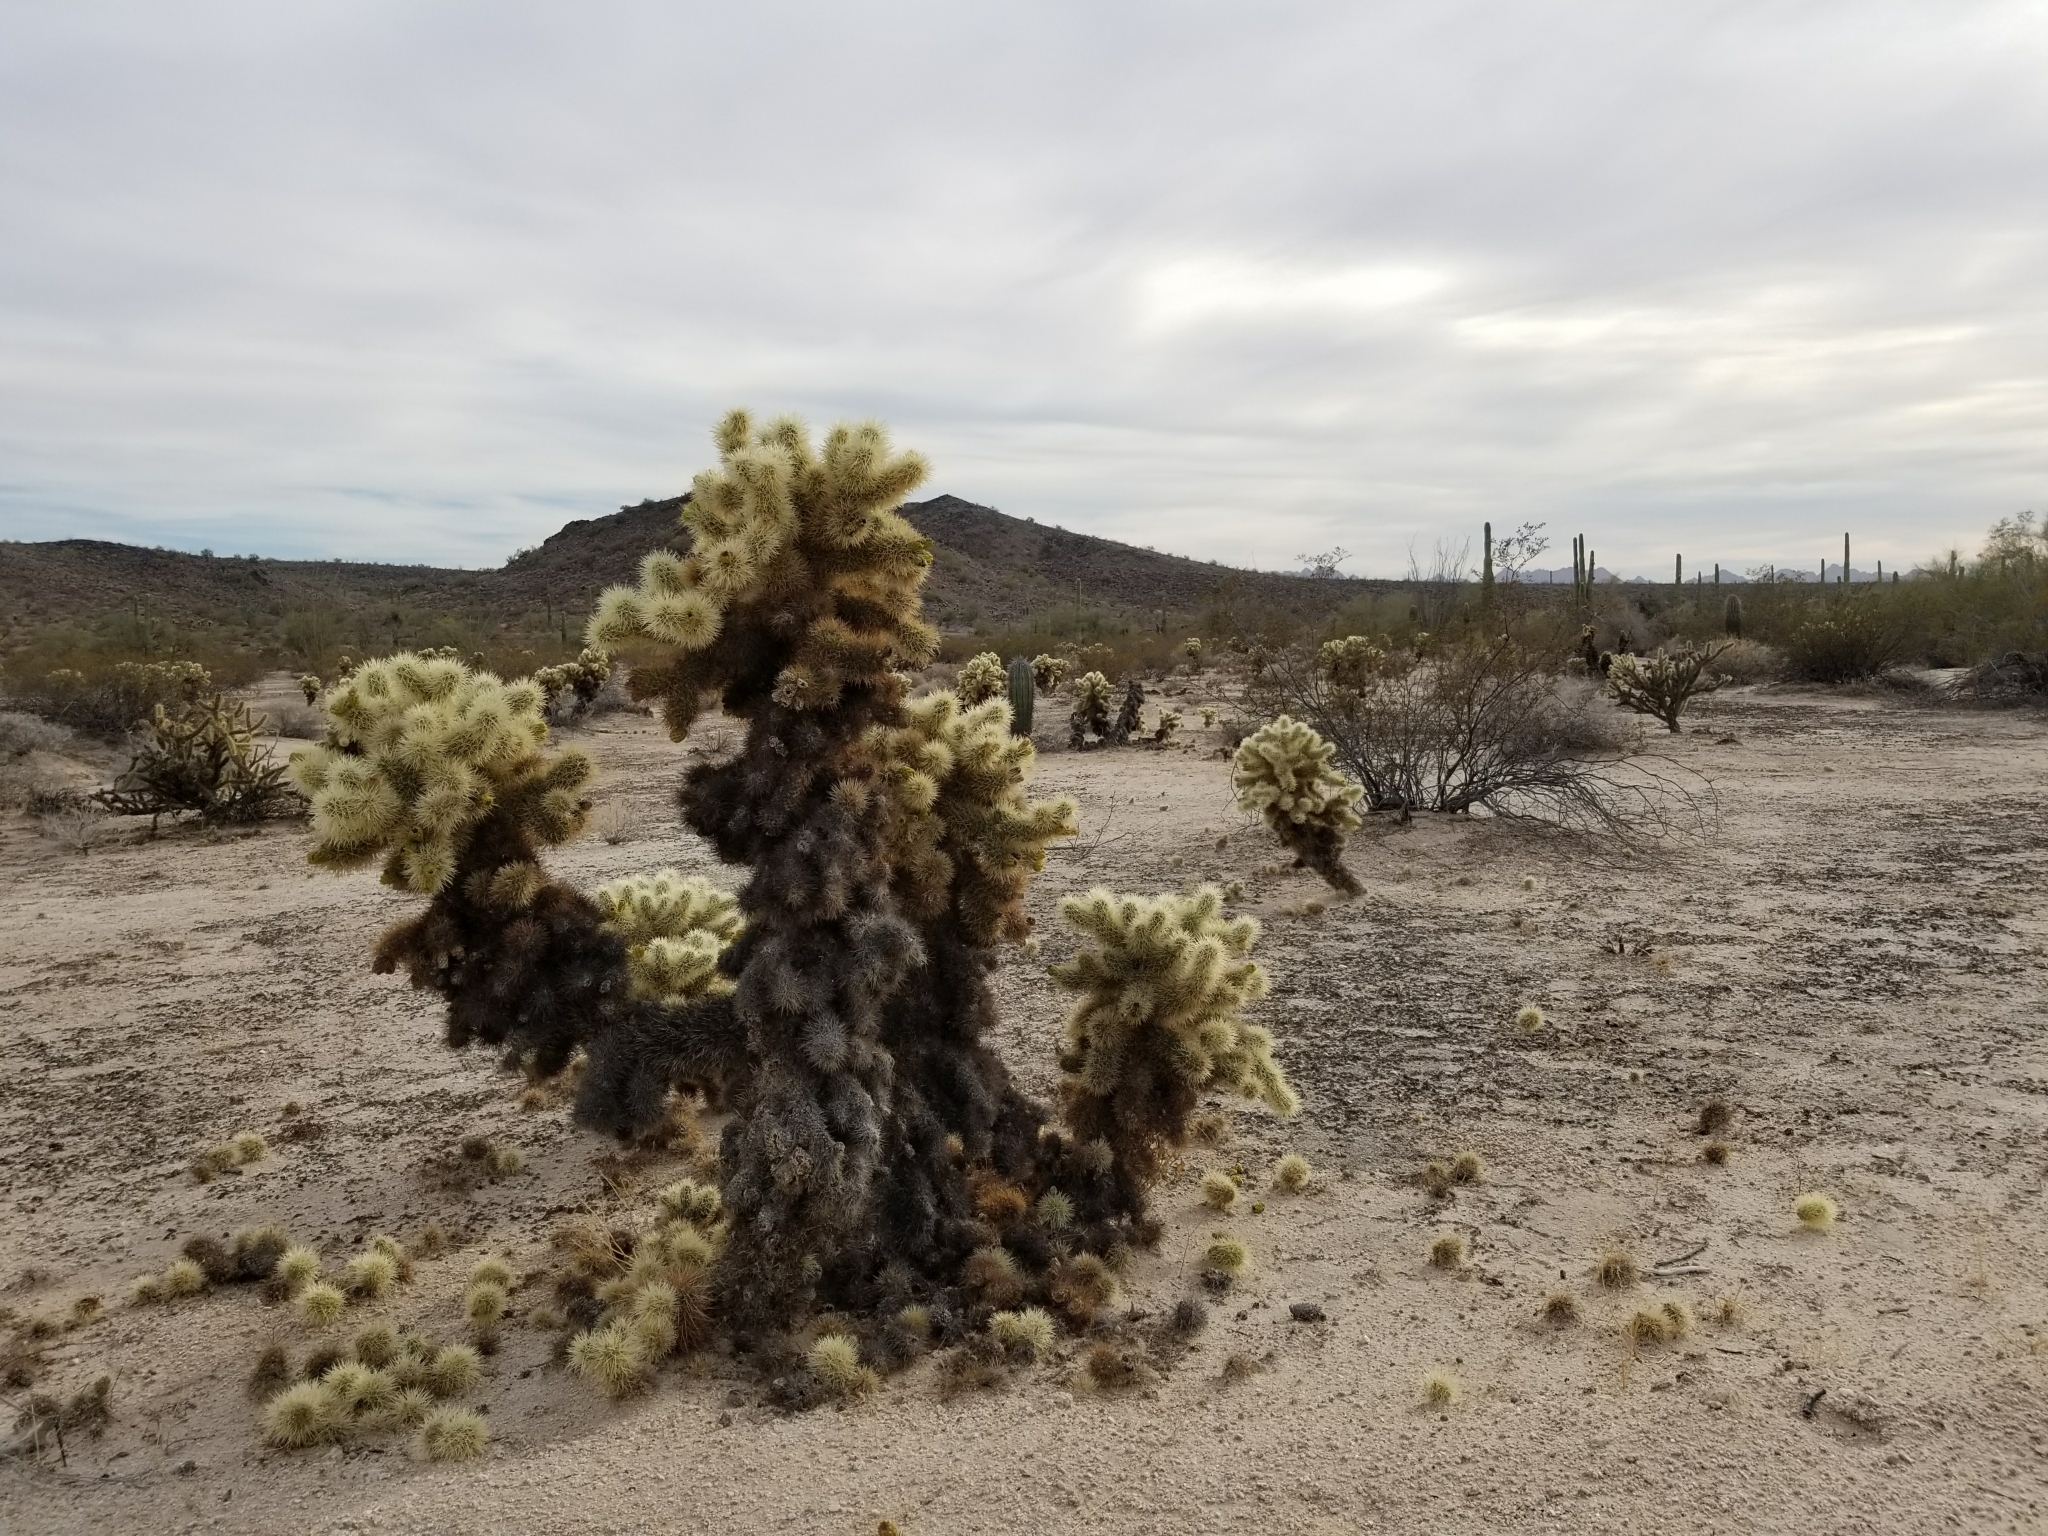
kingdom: Plantae
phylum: Tracheophyta
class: Magnoliopsida
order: Caryophyllales
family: Cactaceae
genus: Cylindropuntia
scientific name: Cylindropuntia fosbergii
